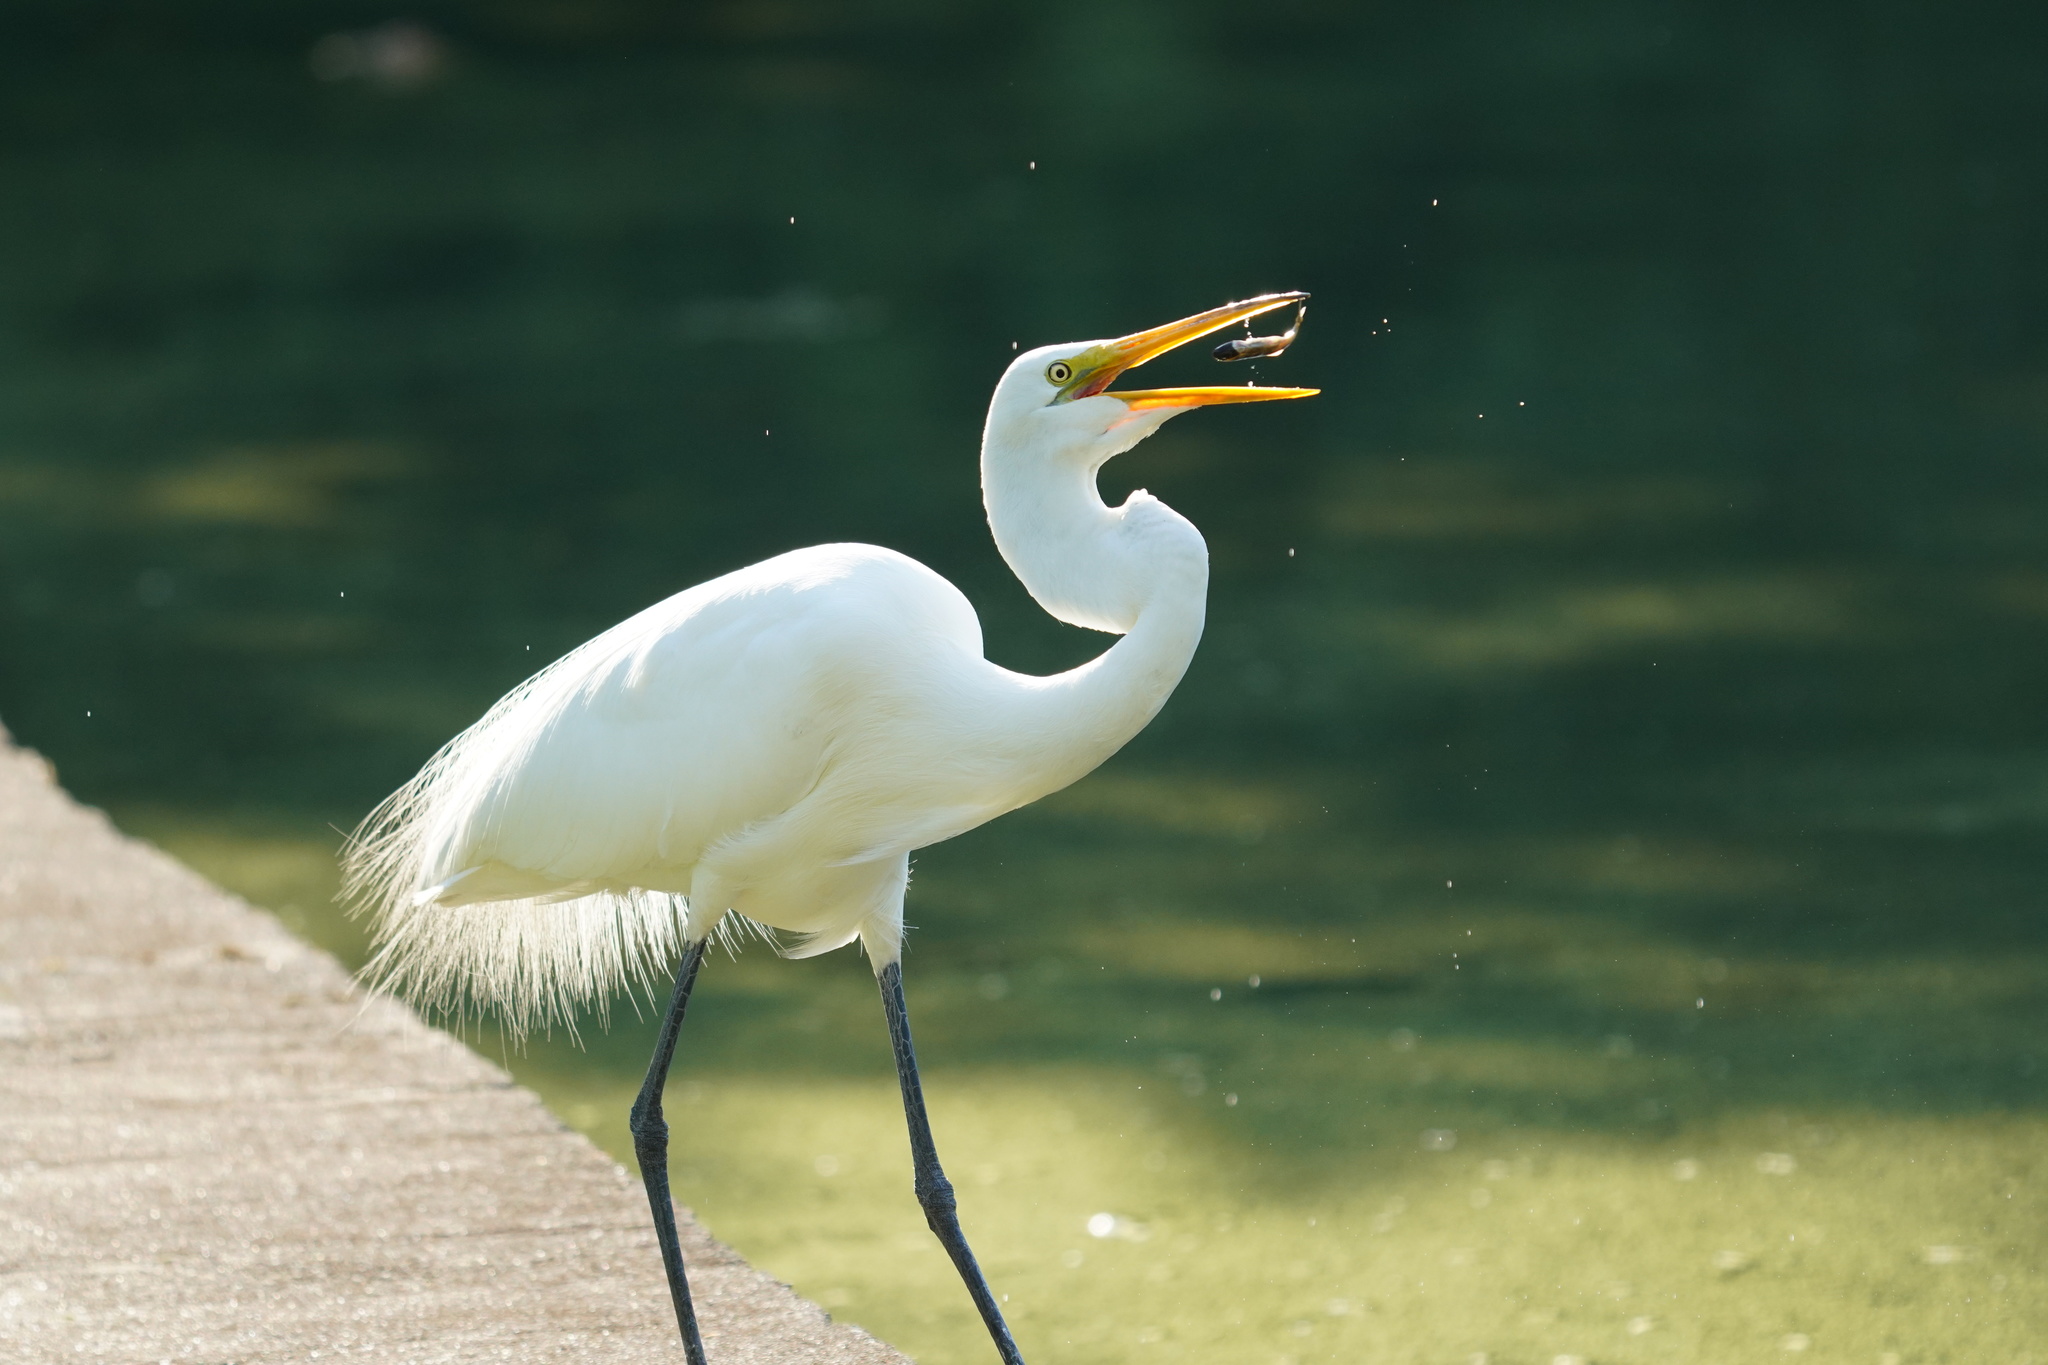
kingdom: Animalia
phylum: Chordata
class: Aves
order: Pelecaniformes
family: Ardeidae
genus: Ardea
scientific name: Ardea alba
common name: Great egret
